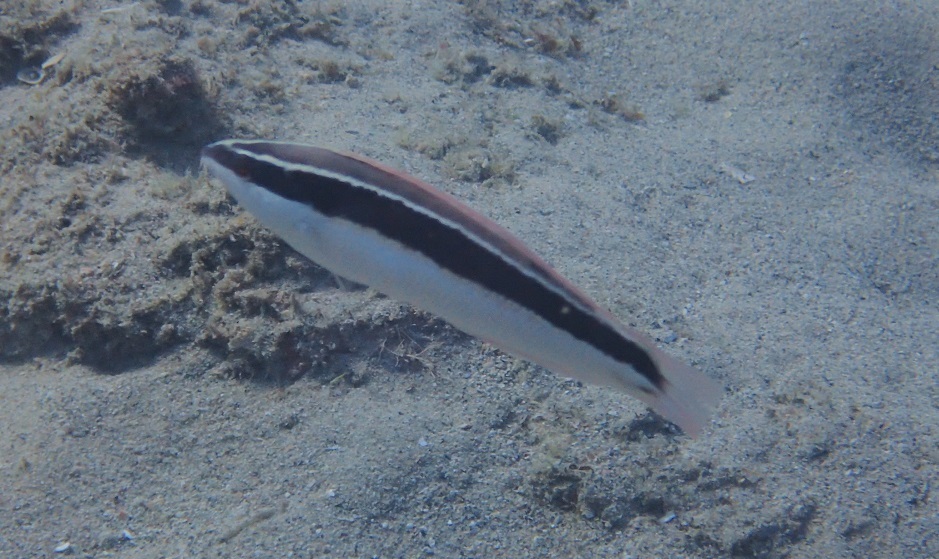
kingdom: Animalia
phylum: Chordata
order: Perciformes
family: Labridae
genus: Coris
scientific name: Coris pictoides
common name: Blackstripe coris
